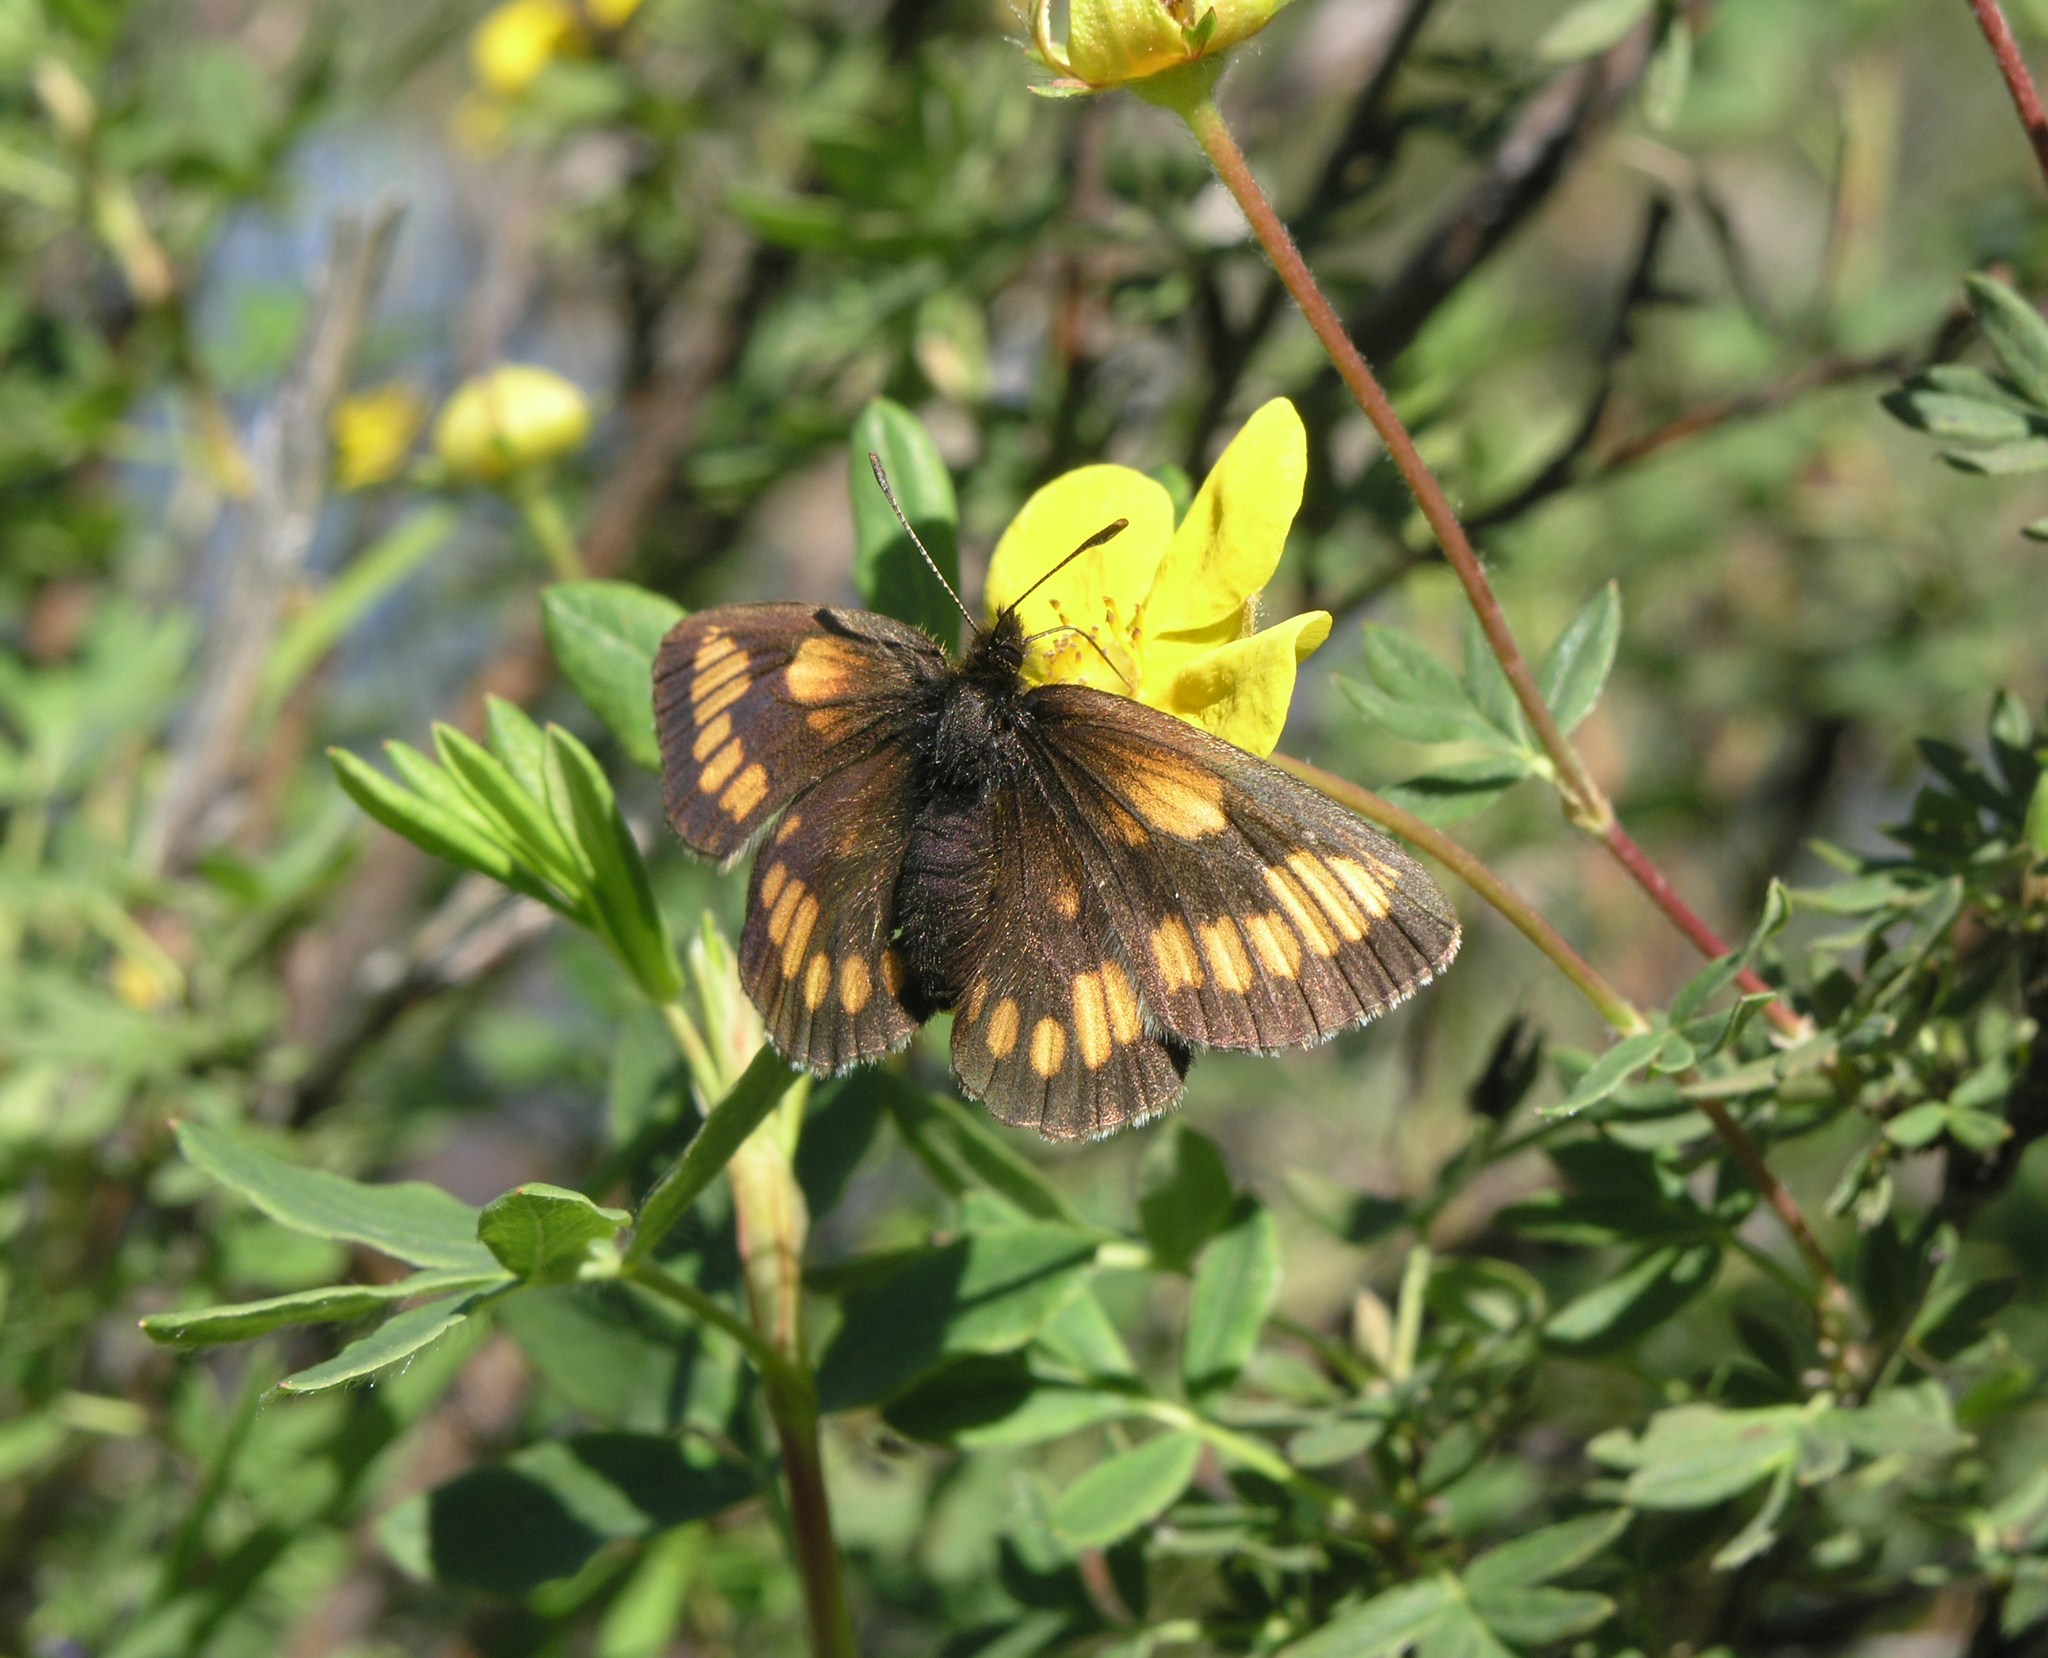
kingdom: Animalia
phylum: Arthropoda
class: Insecta
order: Lepidoptera
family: Nymphalidae
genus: Erebia
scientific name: Erebia maurisius
